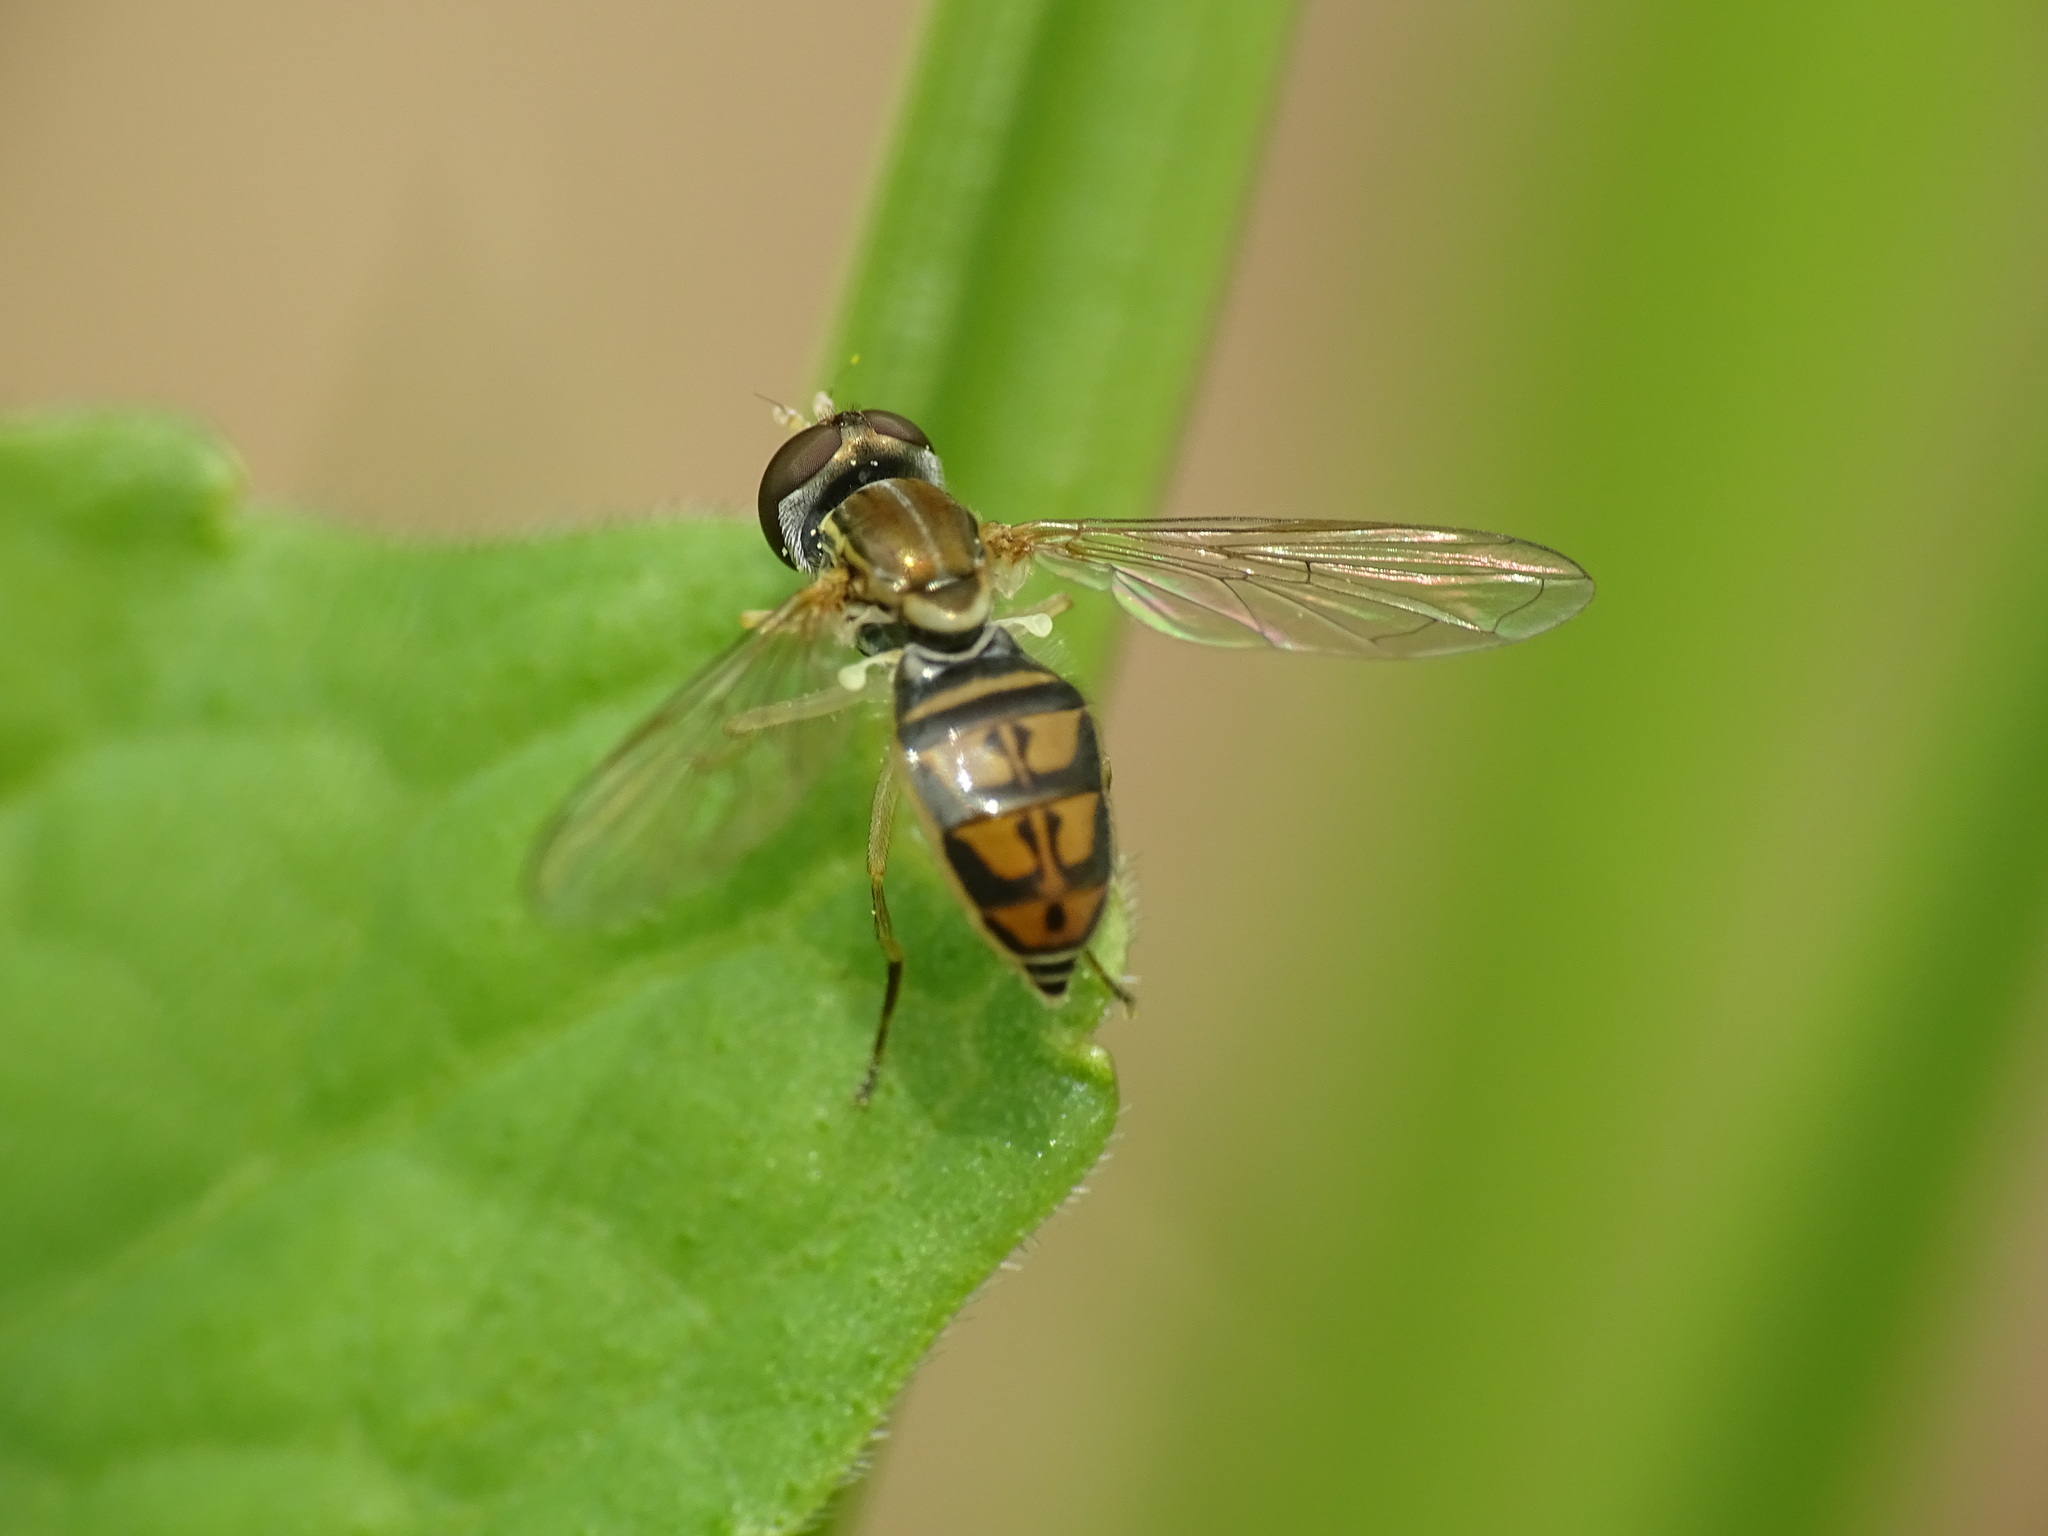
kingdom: Animalia
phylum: Arthropoda
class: Insecta
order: Diptera
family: Syrphidae
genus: Toxomerus
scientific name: Toxomerus marginatus
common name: Syrphid fly
